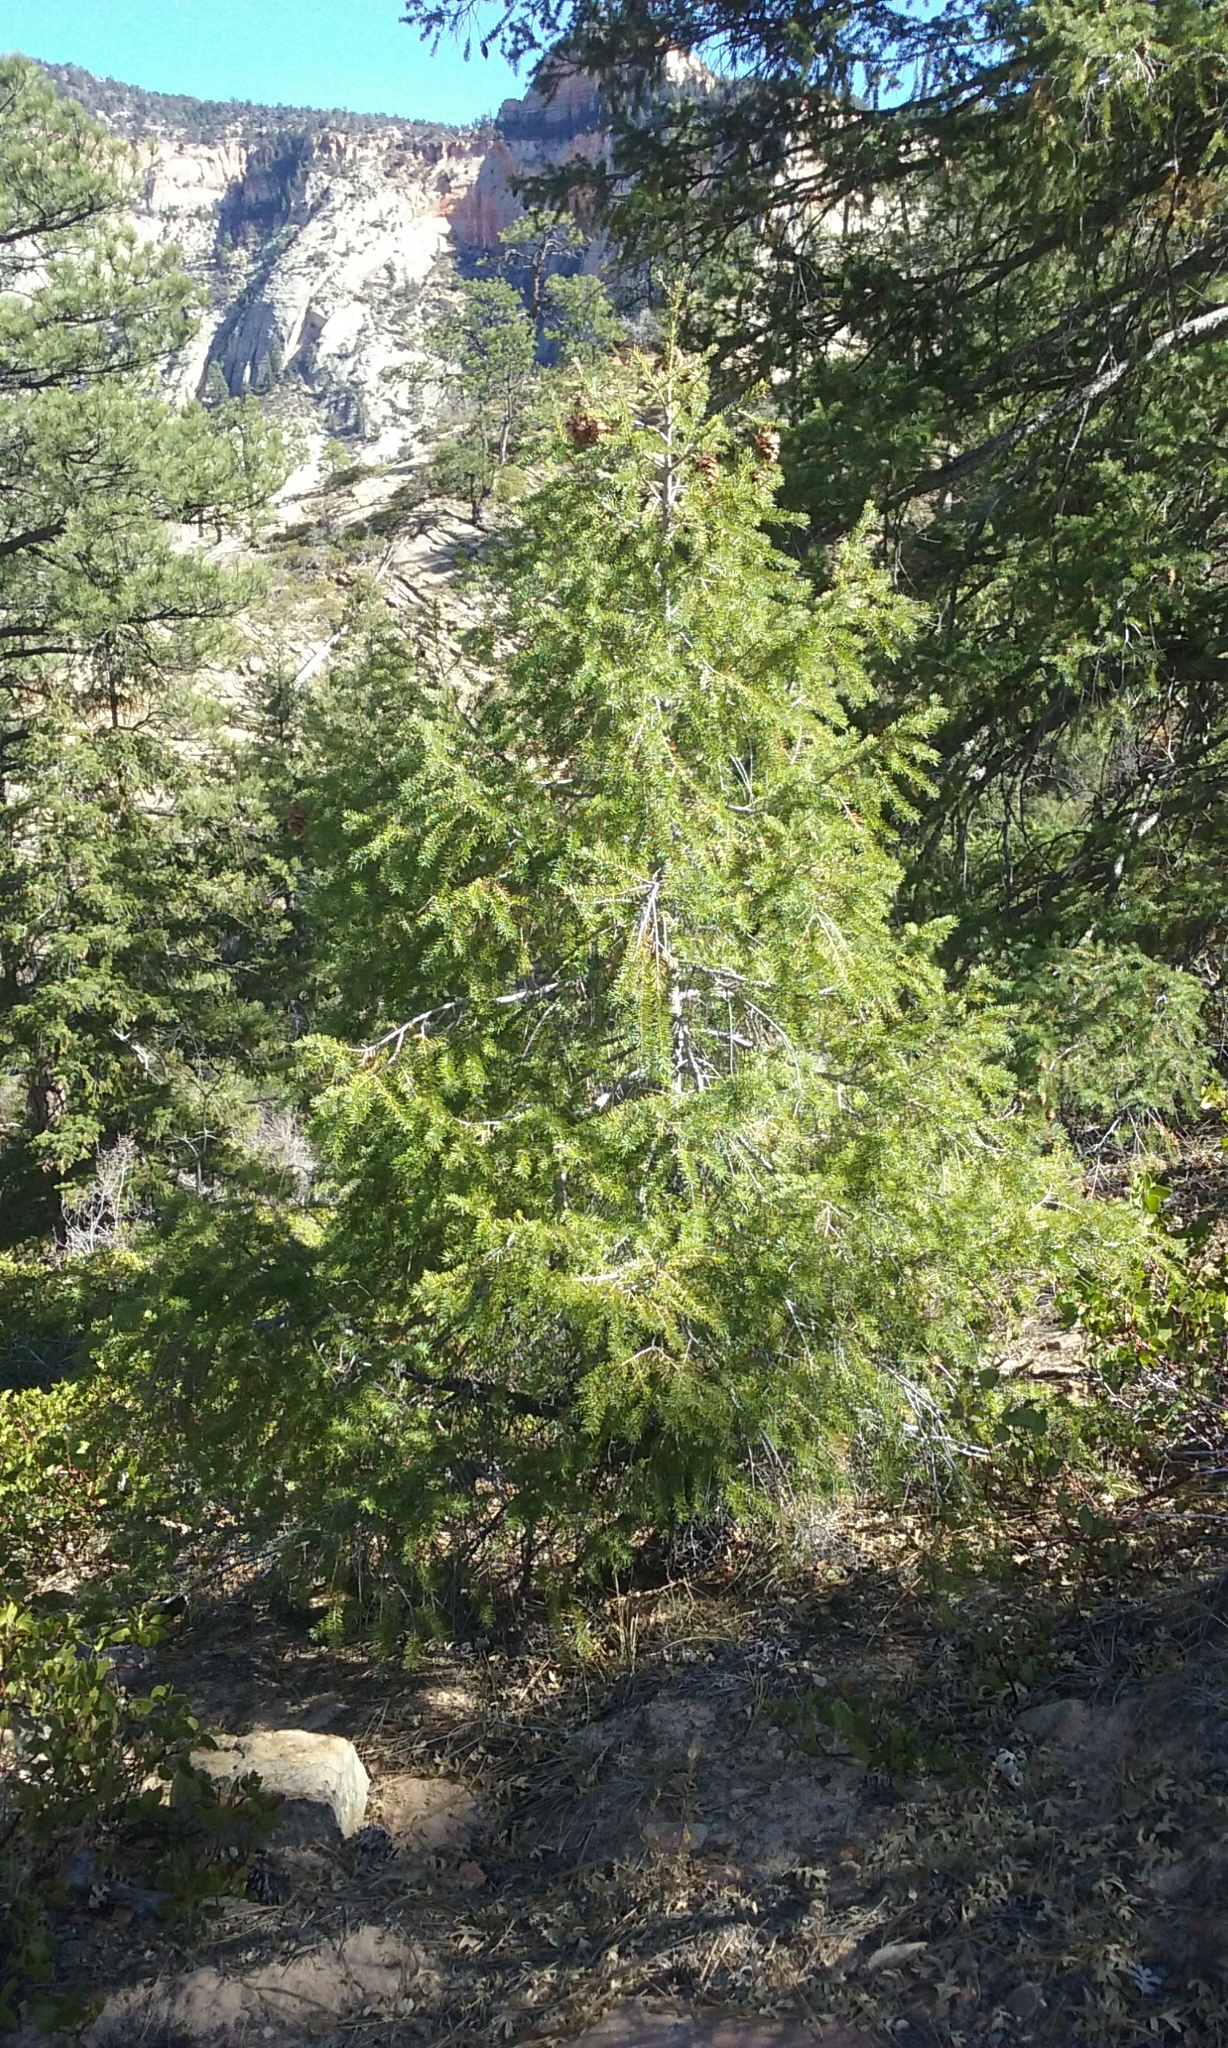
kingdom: Plantae
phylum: Tracheophyta
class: Pinopsida
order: Pinales
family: Pinaceae
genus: Pseudotsuga
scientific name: Pseudotsuga menziesii
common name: Douglas fir
